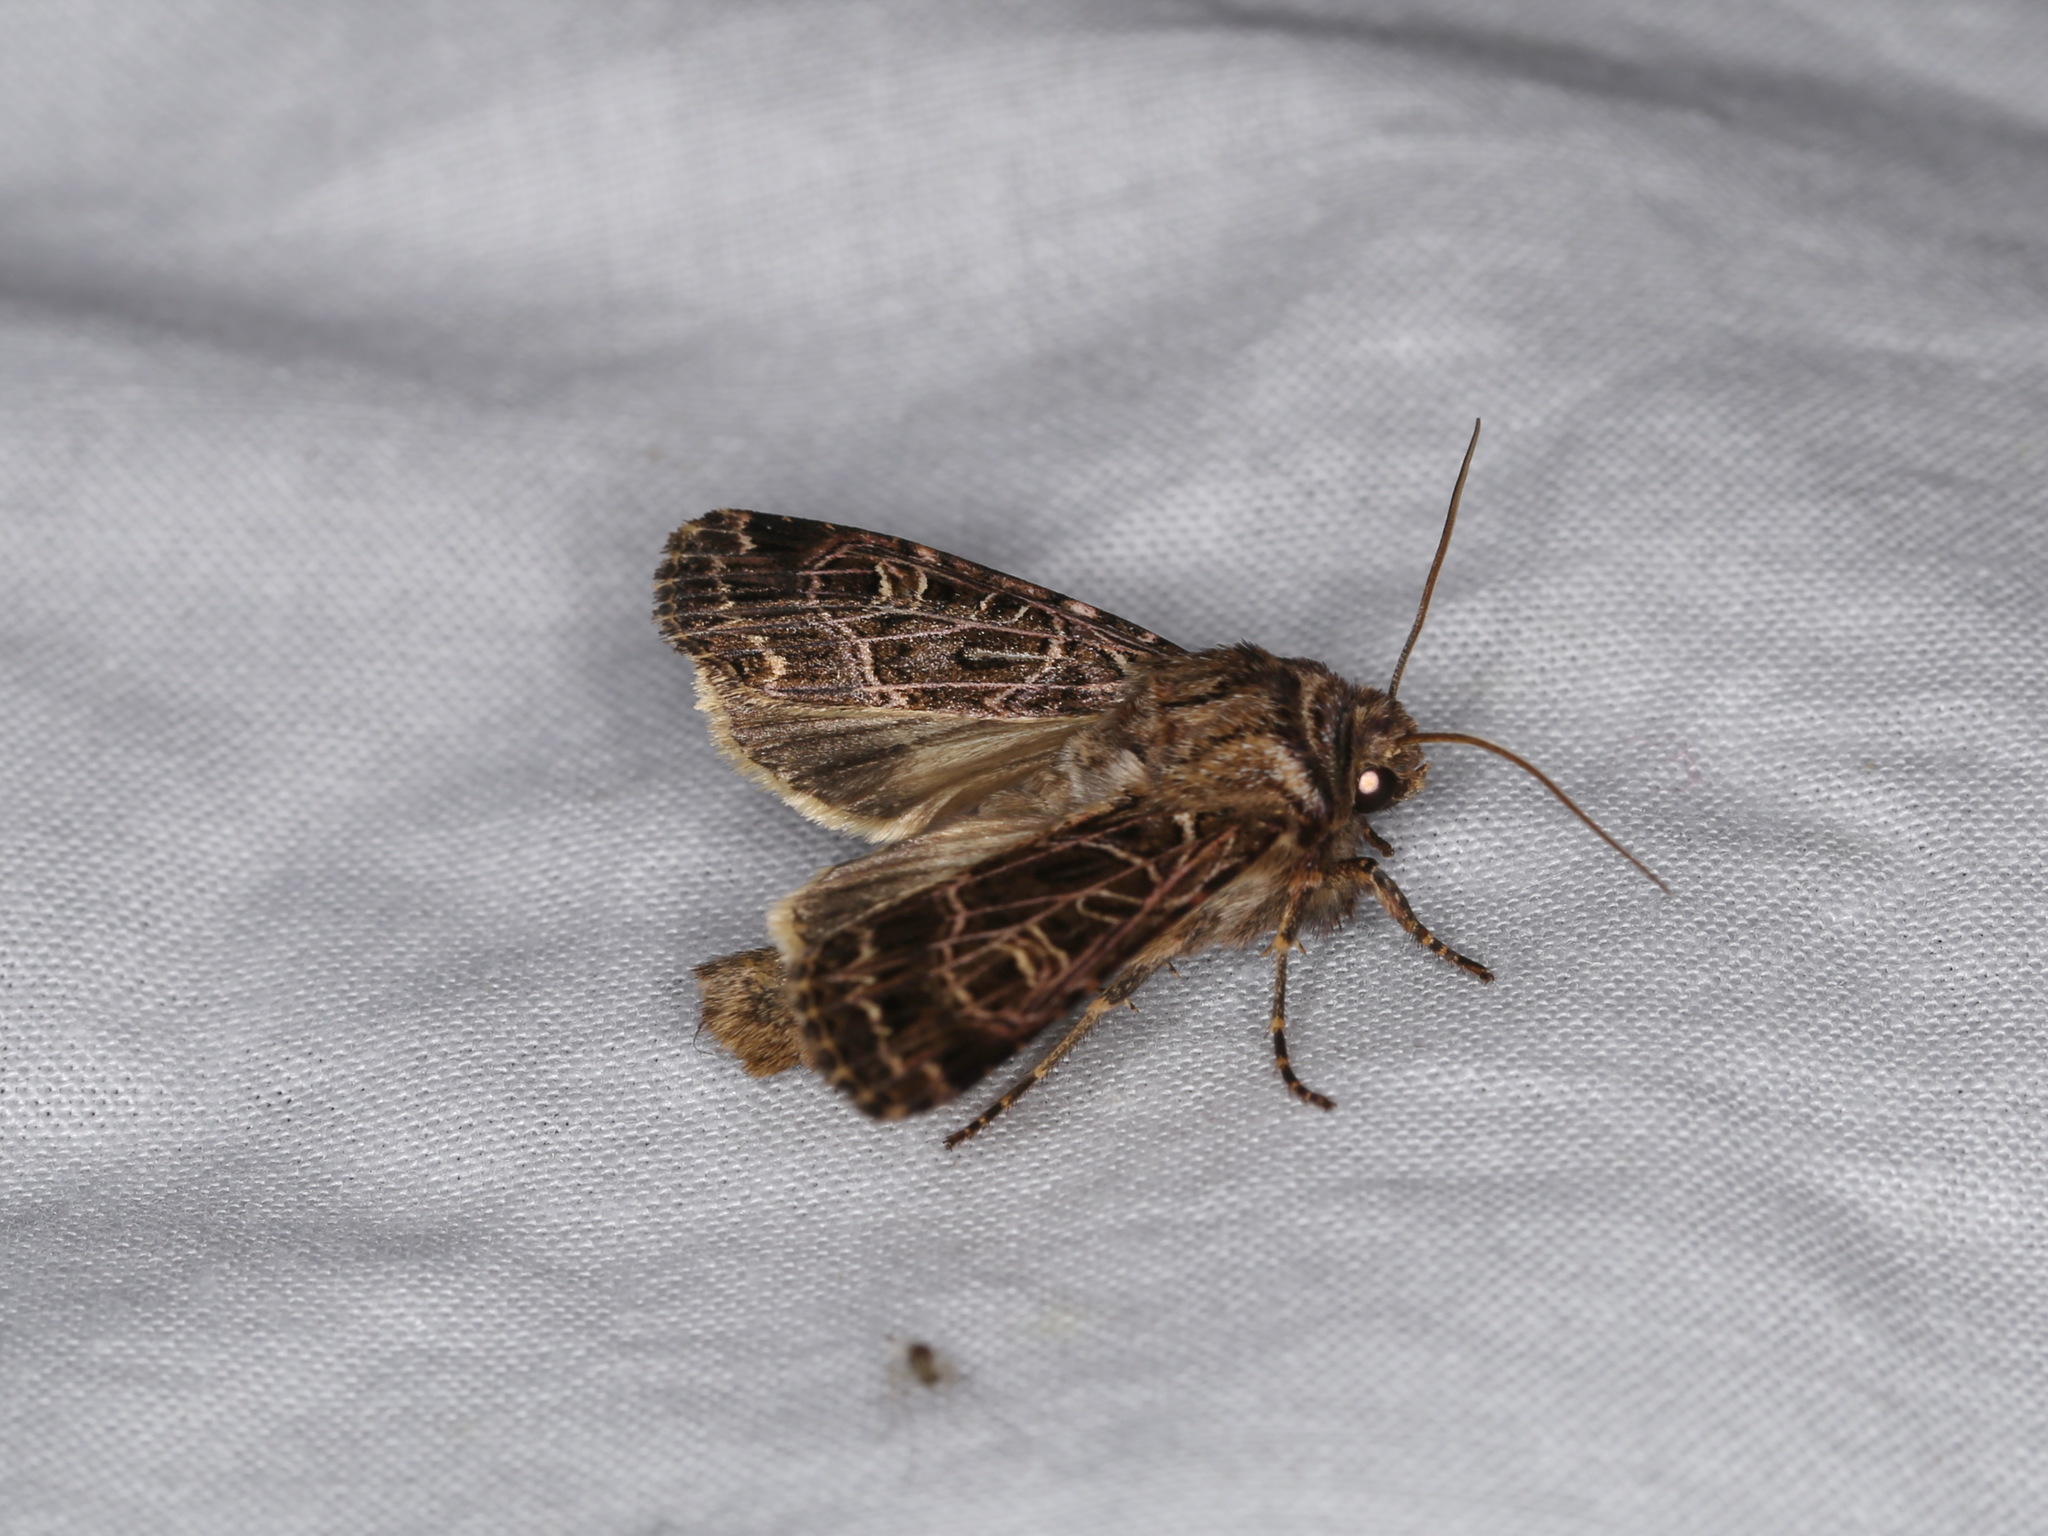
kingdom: Animalia
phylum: Arthropoda
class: Insecta
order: Lepidoptera
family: Noctuidae
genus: Sideridis
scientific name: Sideridis reticulata
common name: Bordered gothic
